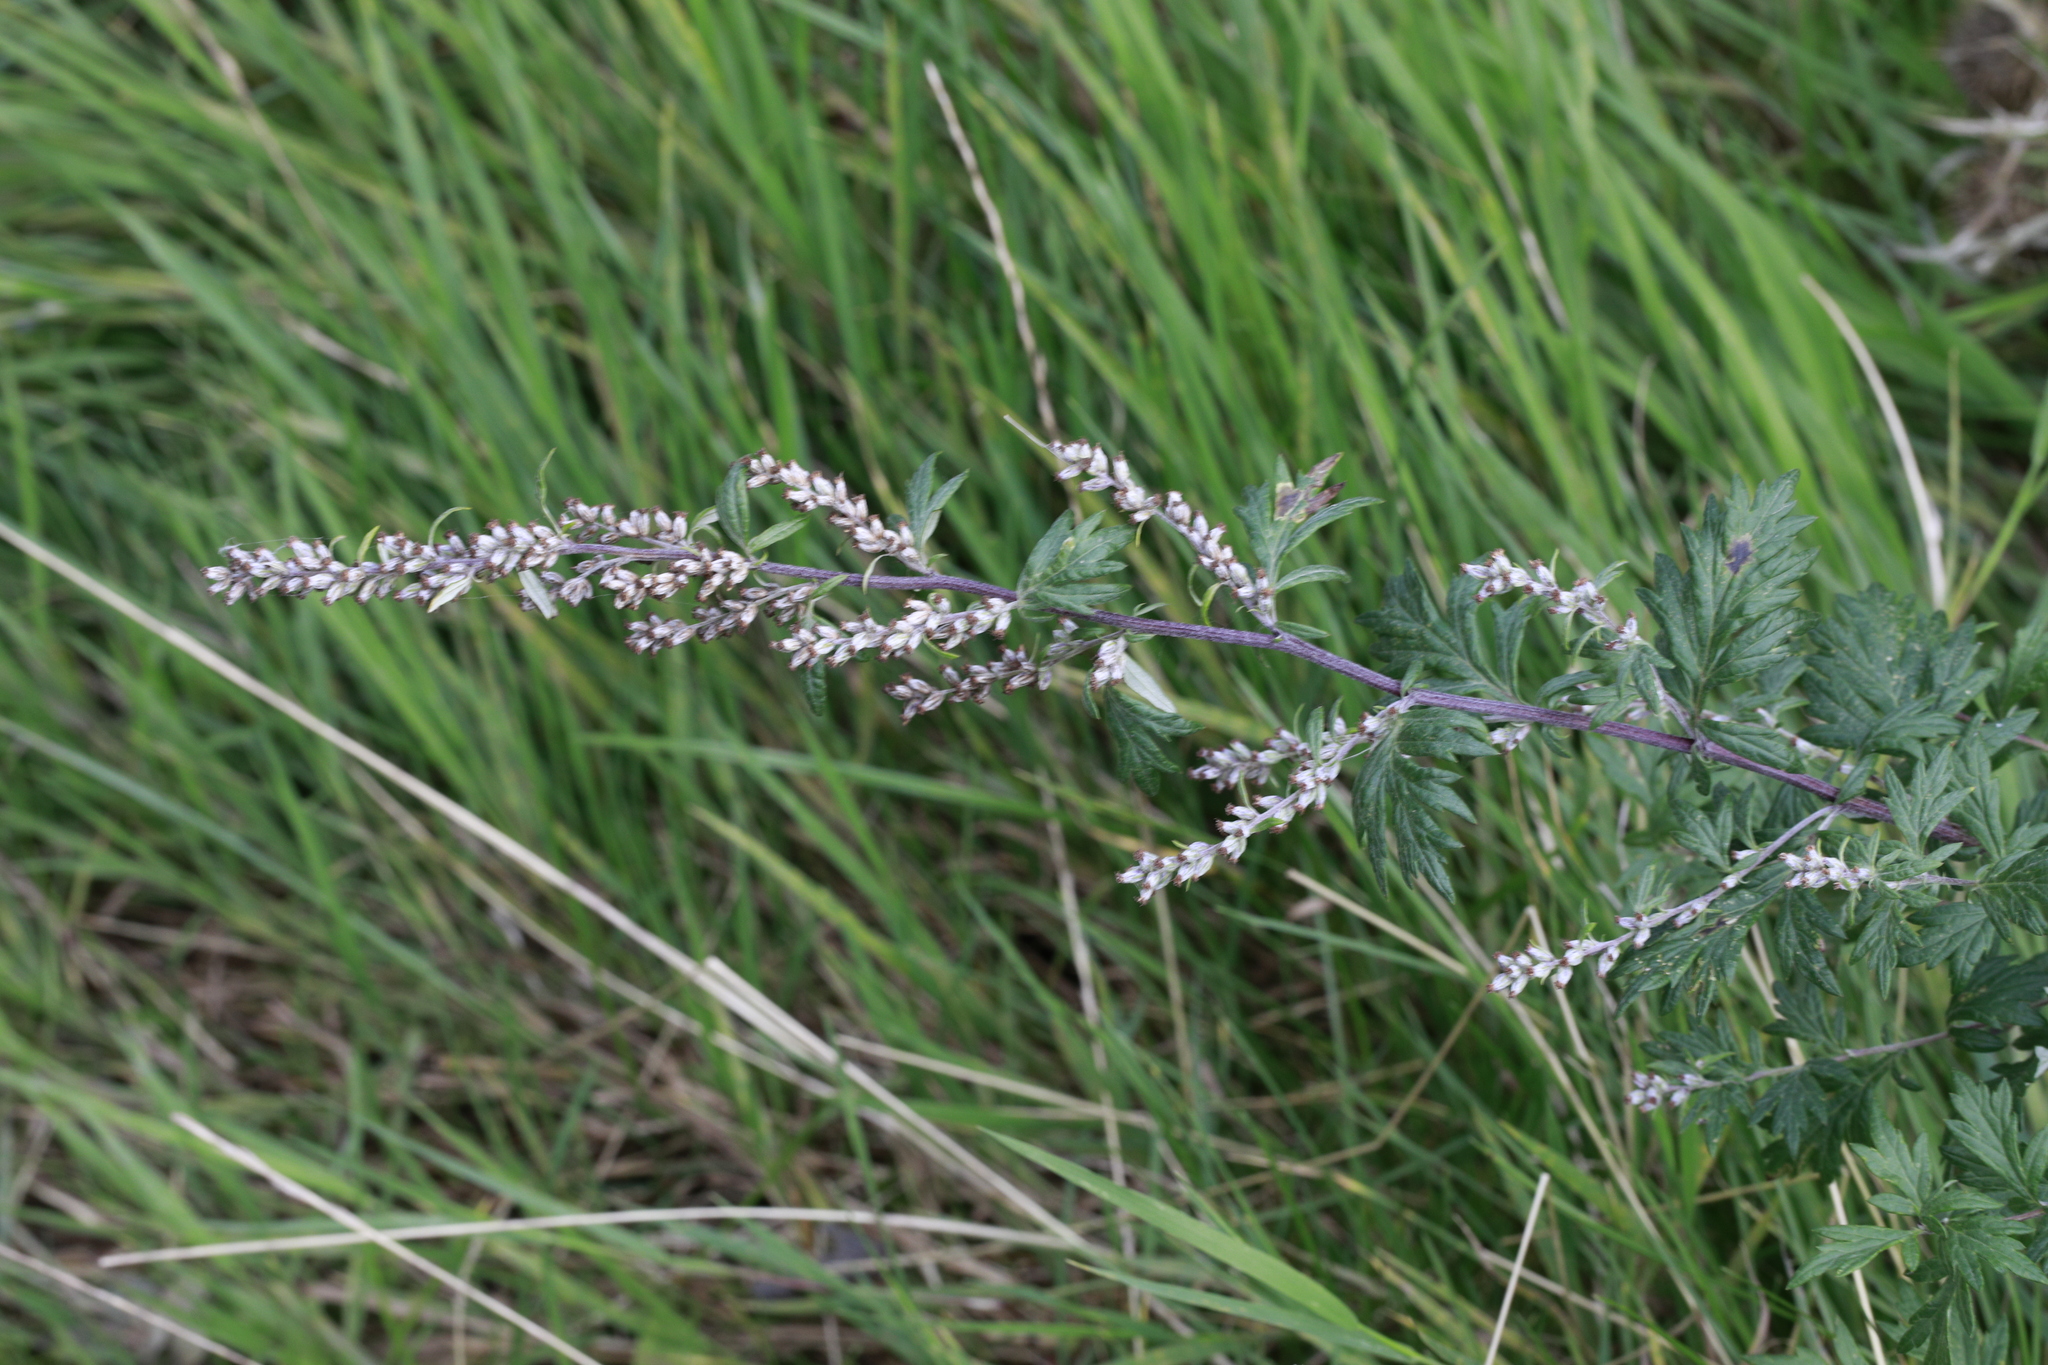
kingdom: Plantae
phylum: Tracheophyta
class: Magnoliopsida
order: Asterales
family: Asteraceae
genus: Artemisia
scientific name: Artemisia vulgaris
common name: Mugwort
